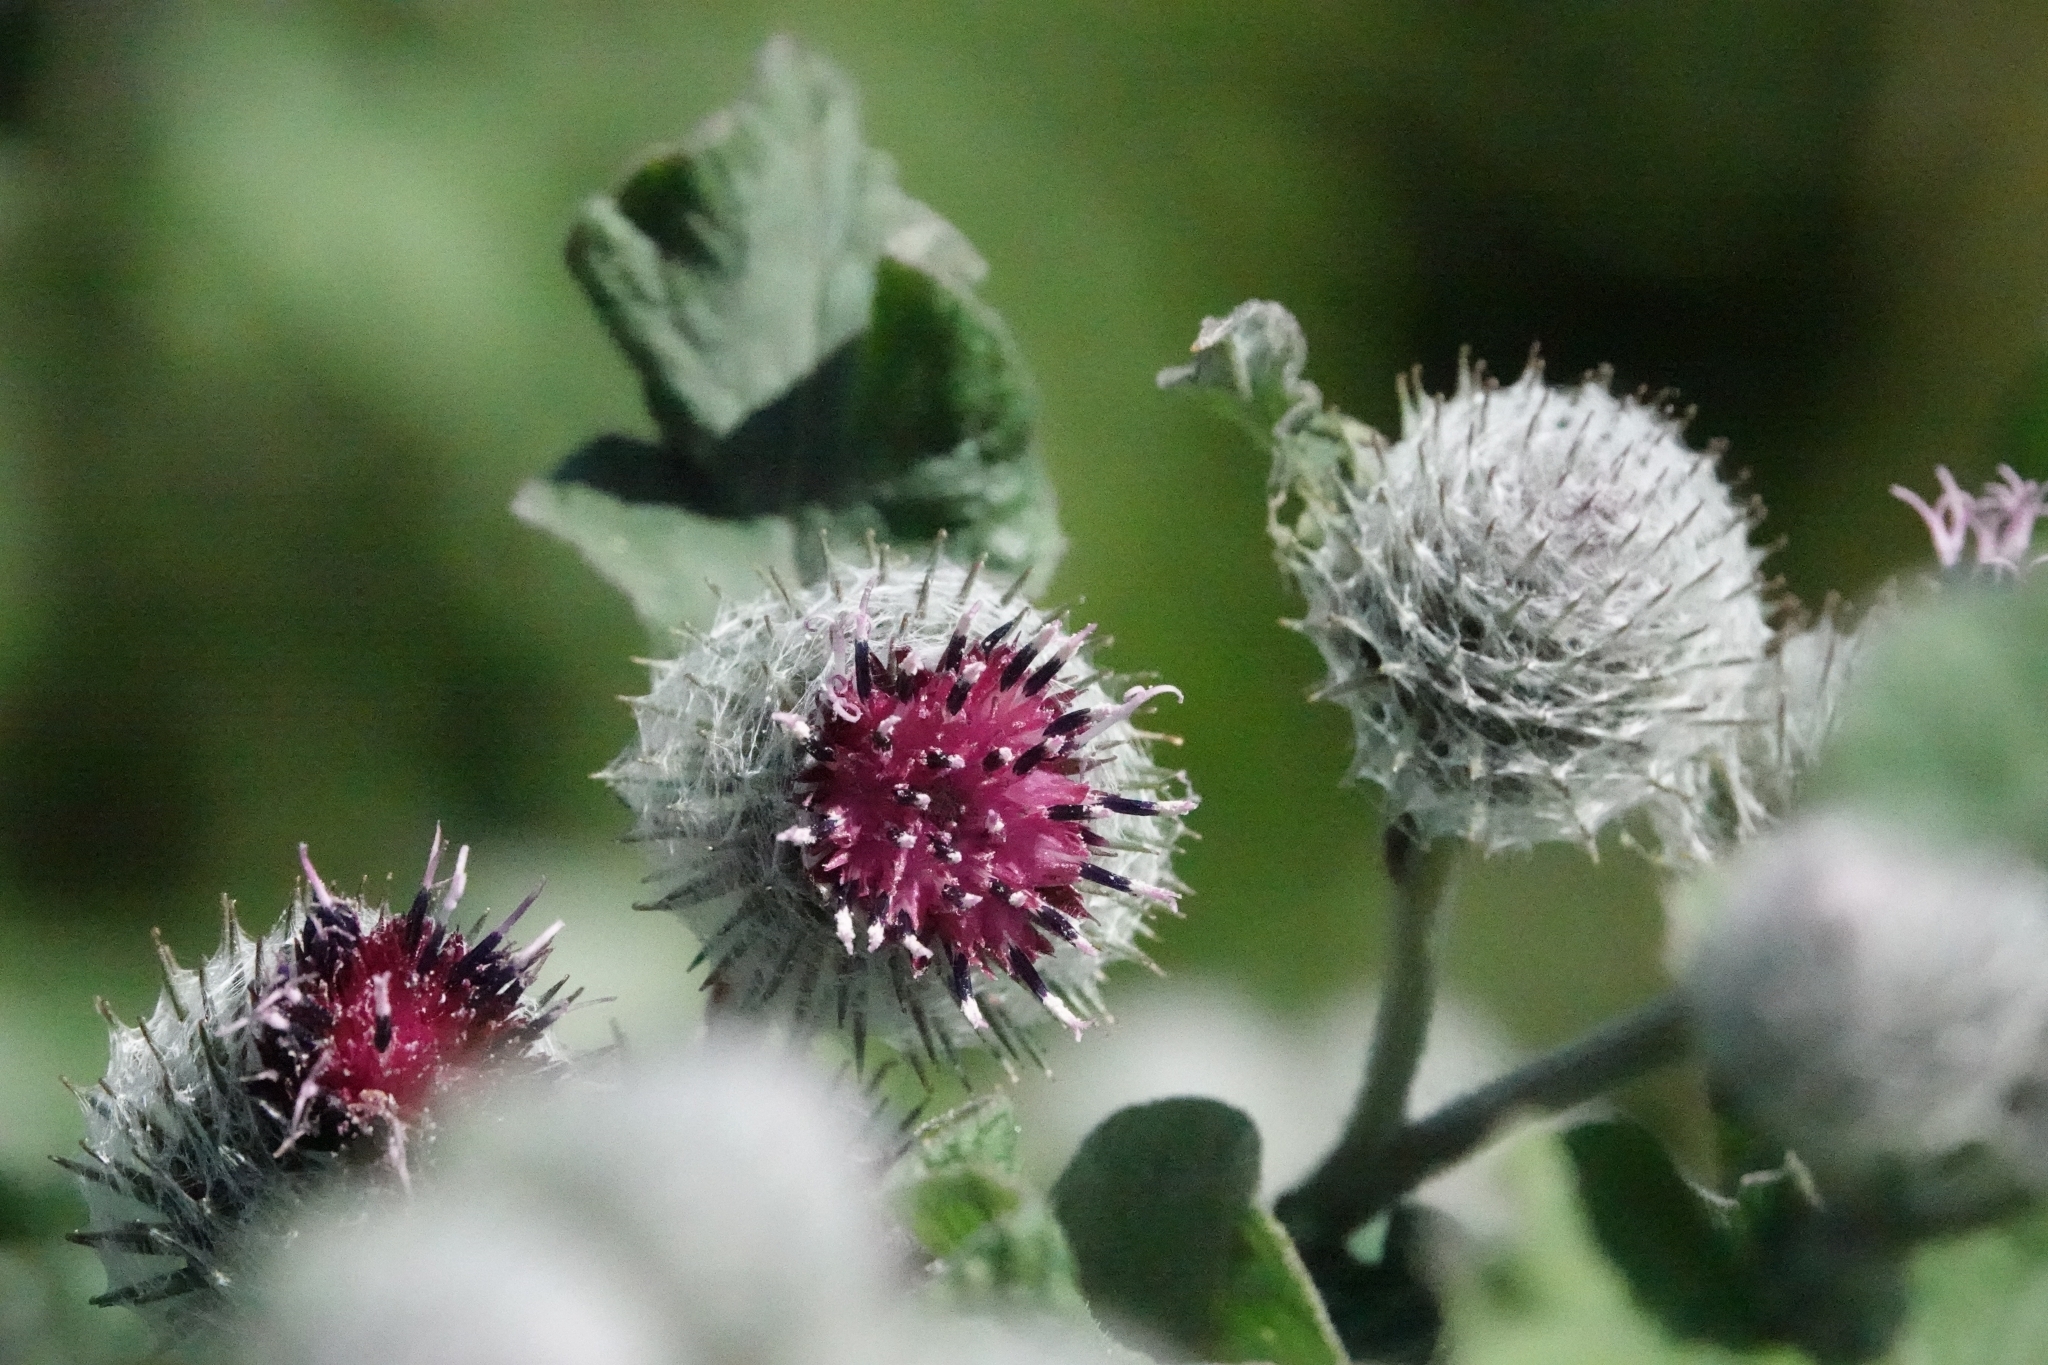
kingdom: Plantae
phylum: Tracheophyta
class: Magnoliopsida
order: Asterales
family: Asteraceae
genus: Arctium
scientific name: Arctium tomentosum
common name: Woolly burdock
